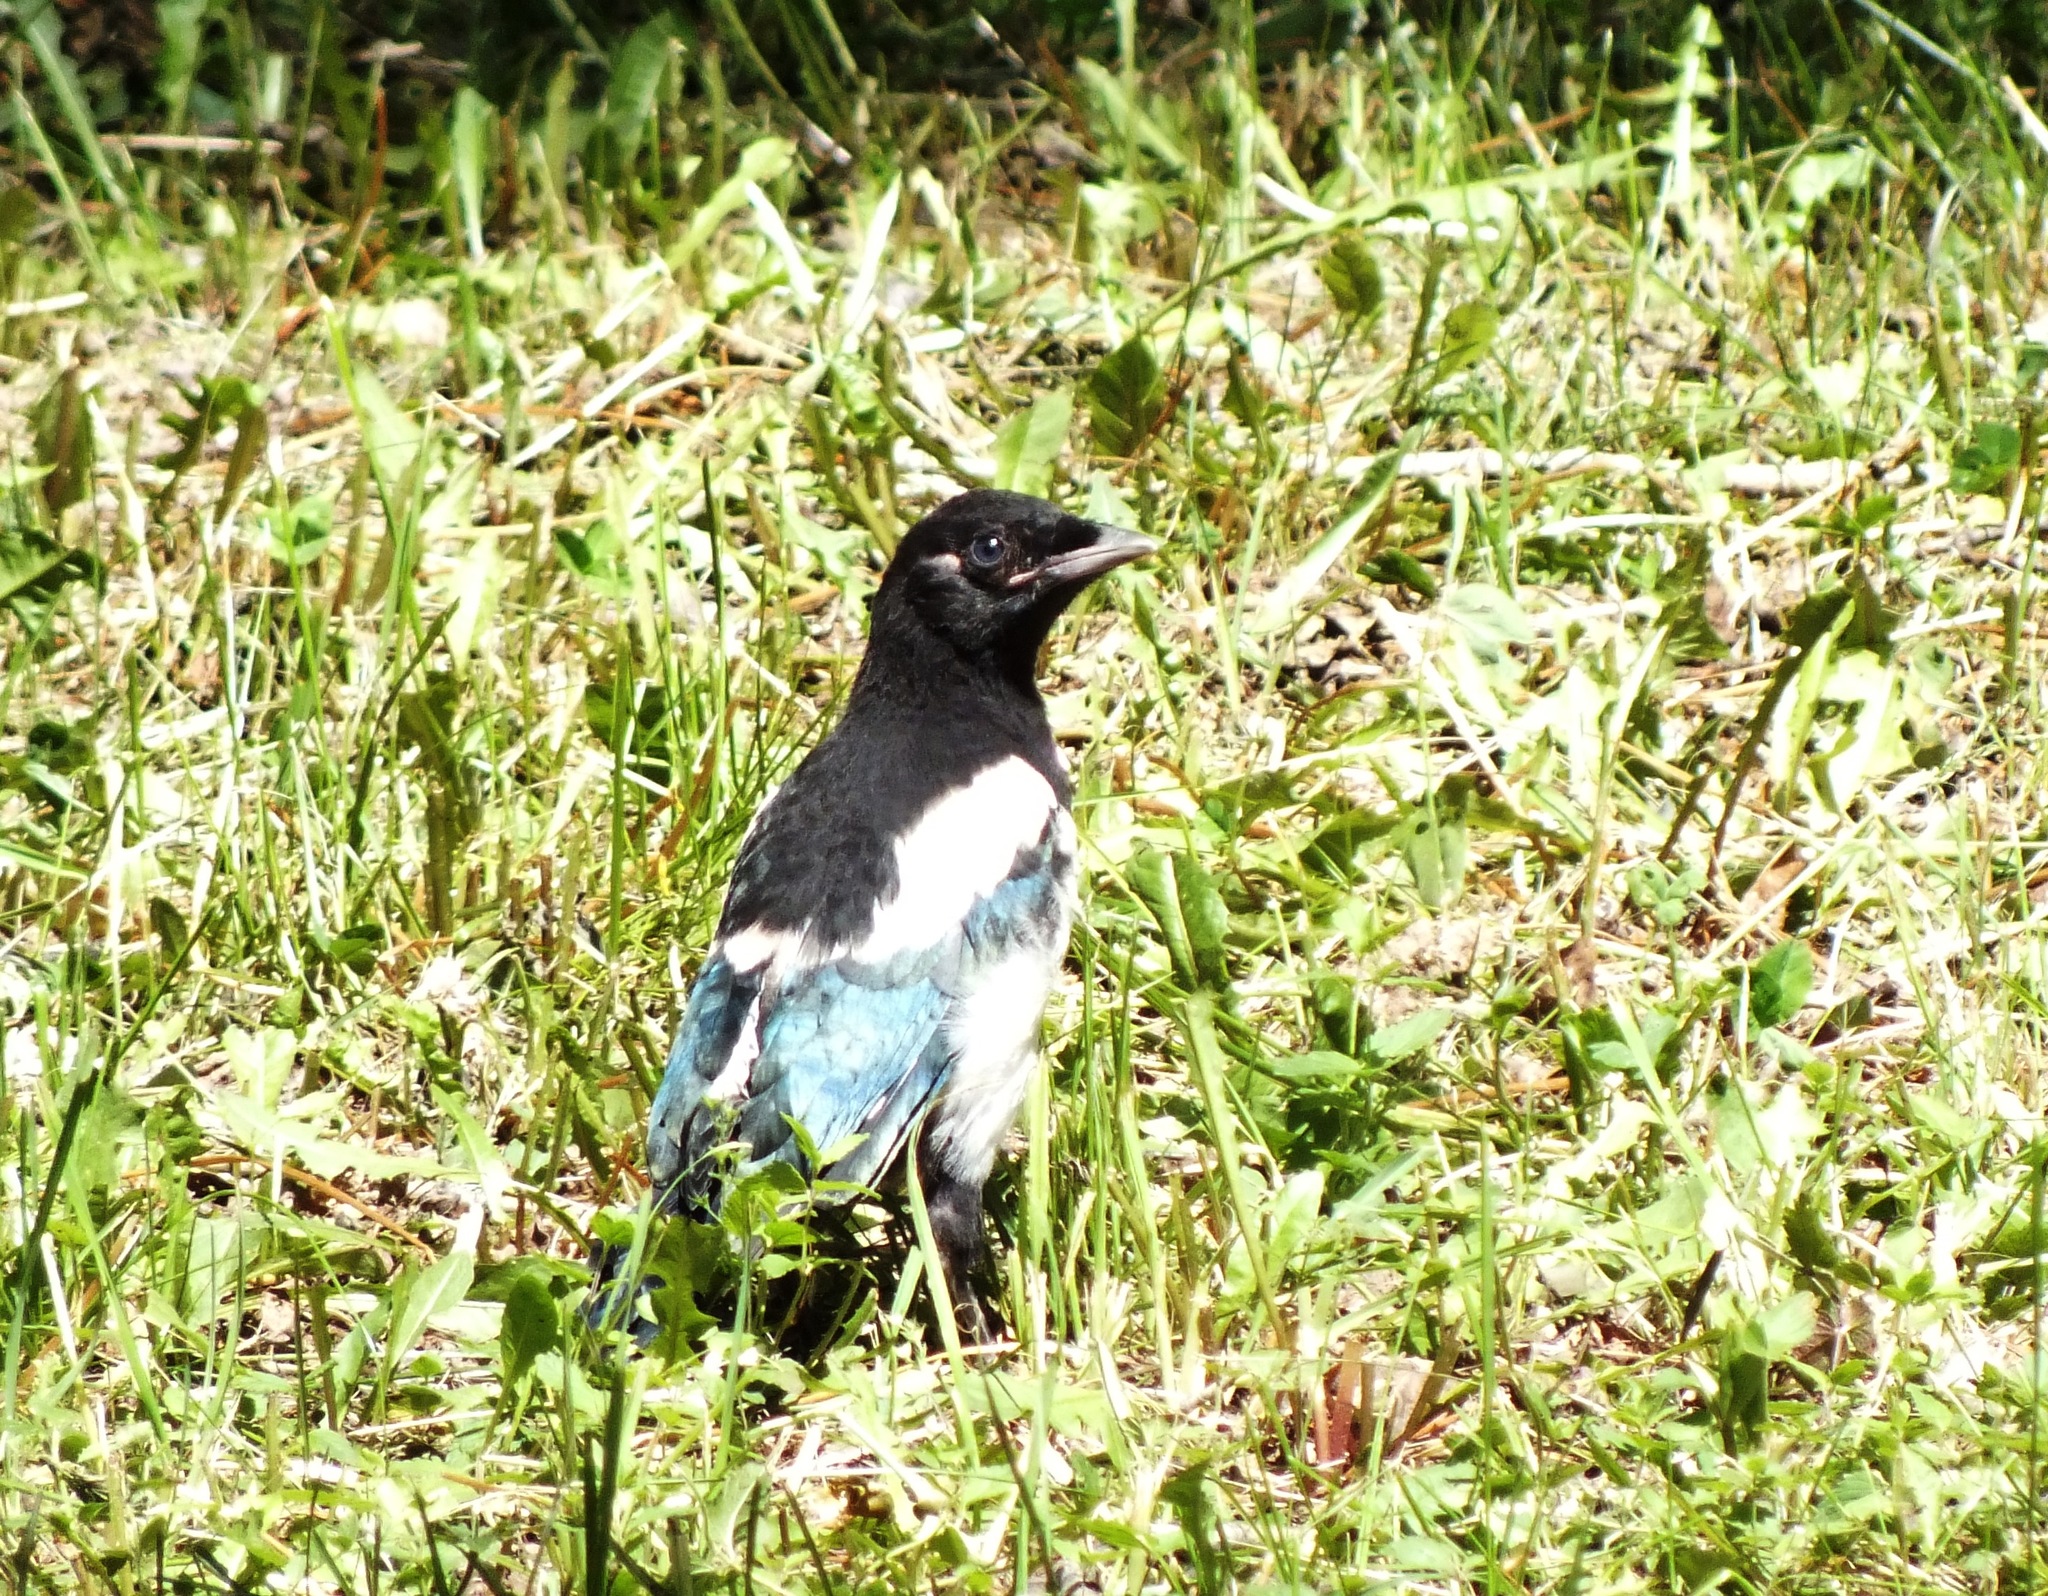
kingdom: Animalia
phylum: Chordata
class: Aves
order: Passeriformes
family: Corvidae
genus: Pica
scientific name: Pica pica
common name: Eurasian magpie
